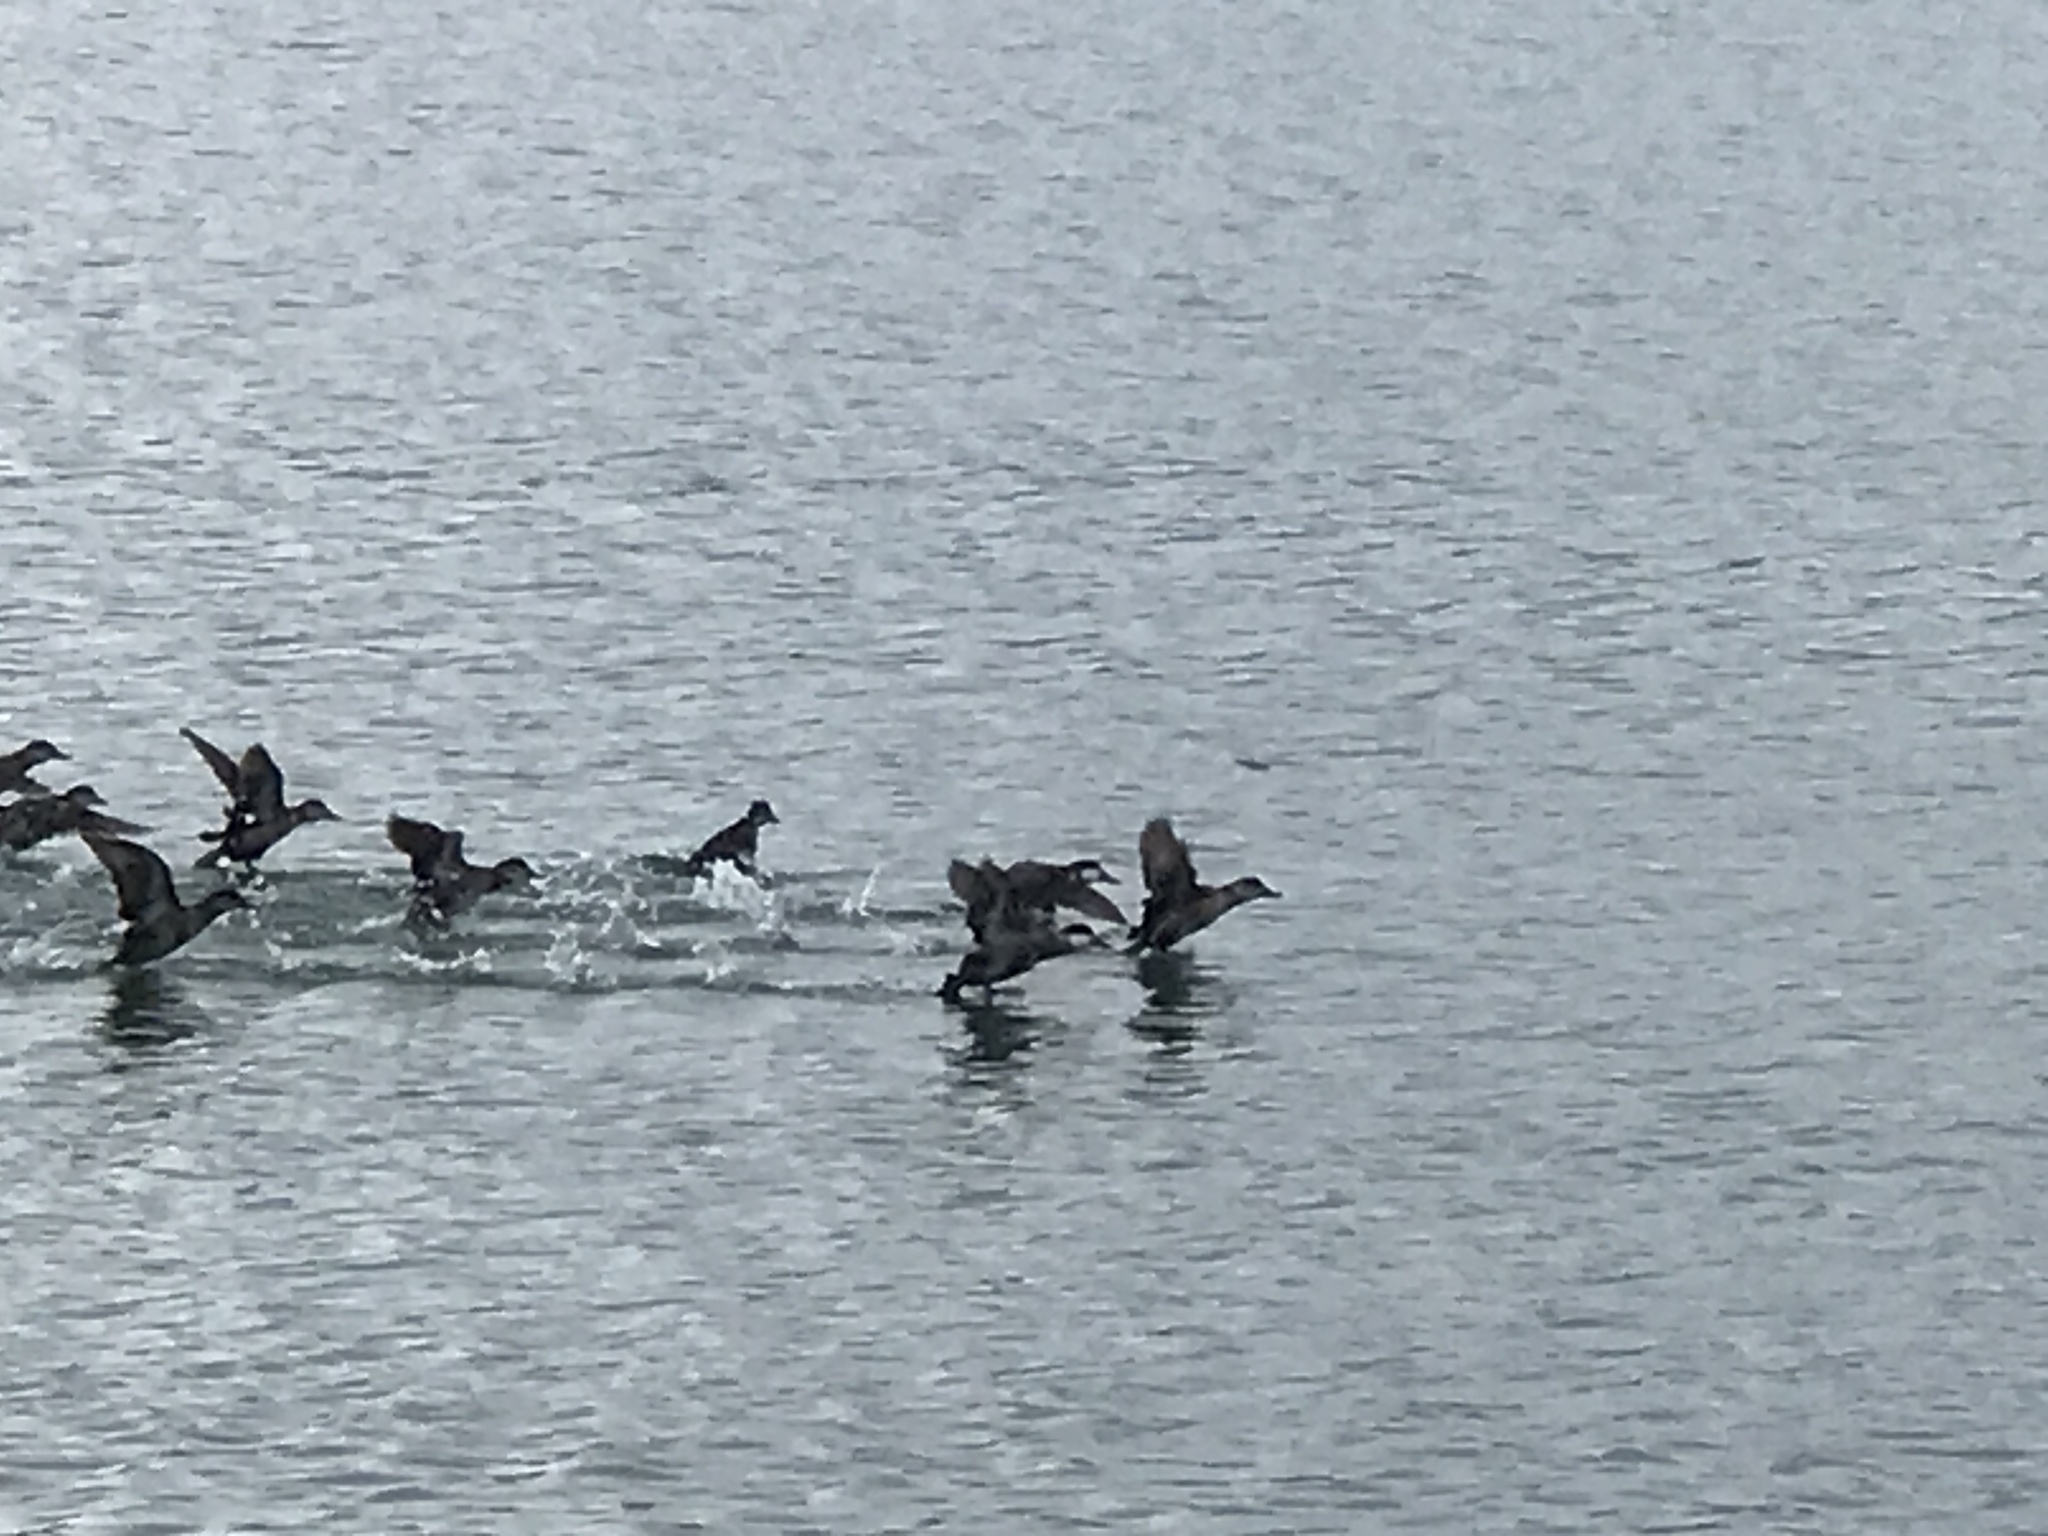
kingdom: Animalia
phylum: Chordata
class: Aves
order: Anseriformes
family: Anatidae
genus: Oxyura
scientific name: Oxyura jamaicensis
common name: Ruddy duck
